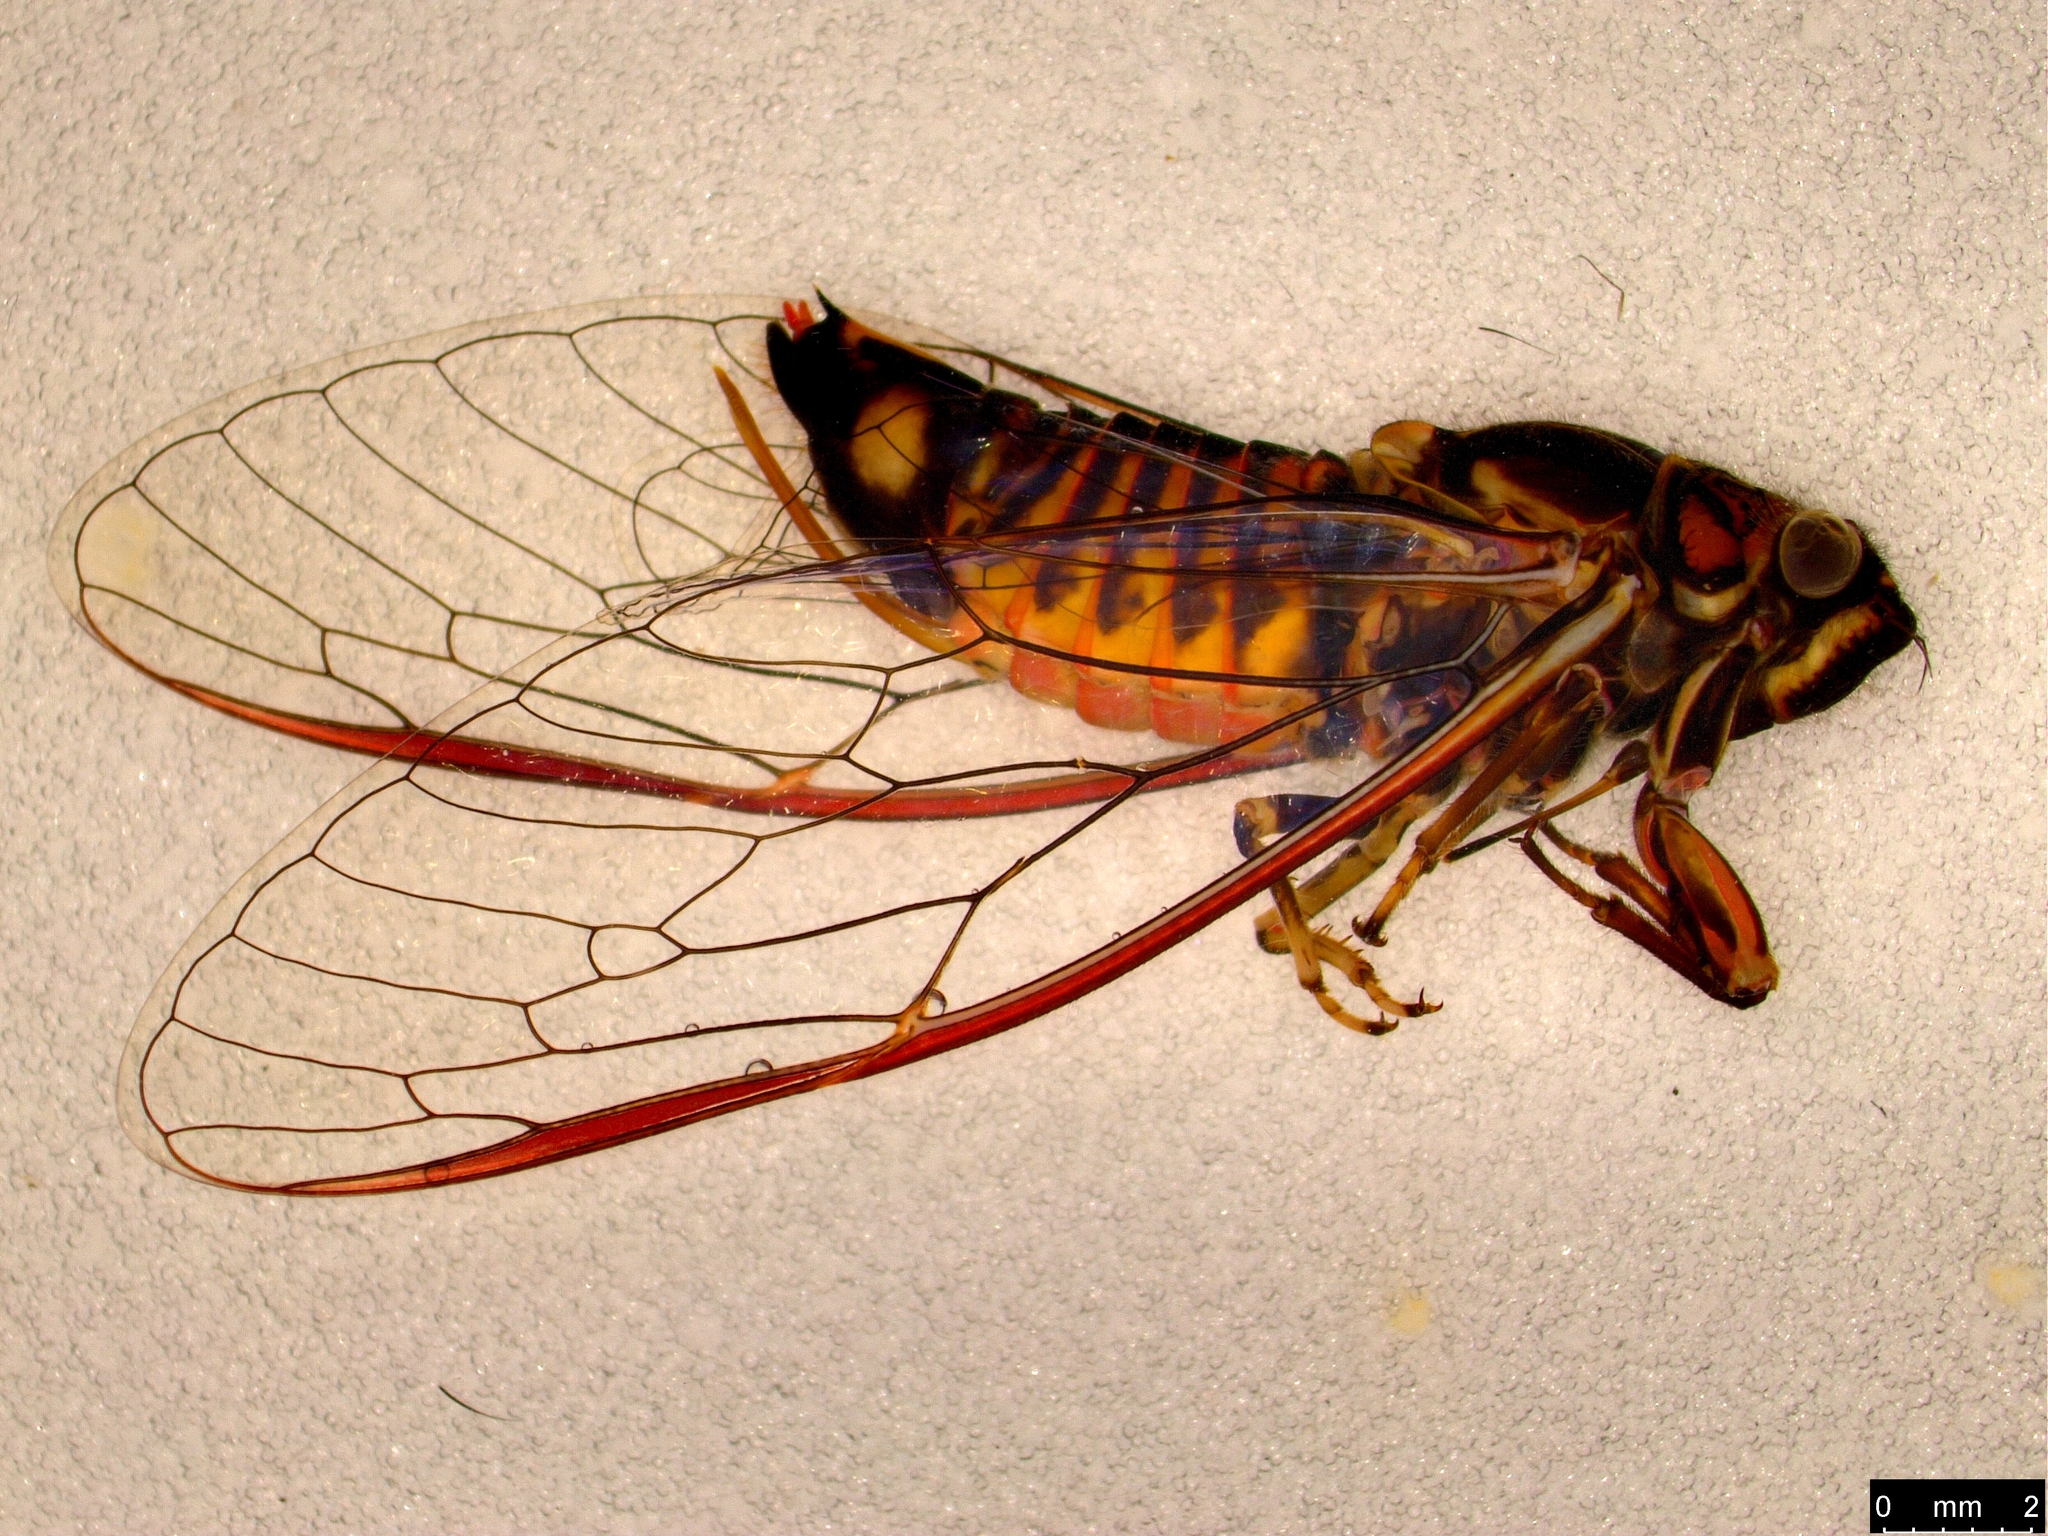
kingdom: Animalia
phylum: Arthropoda
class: Insecta
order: Hemiptera
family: Cicadidae
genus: Yoyetta
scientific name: Yoyetta robertsonae
